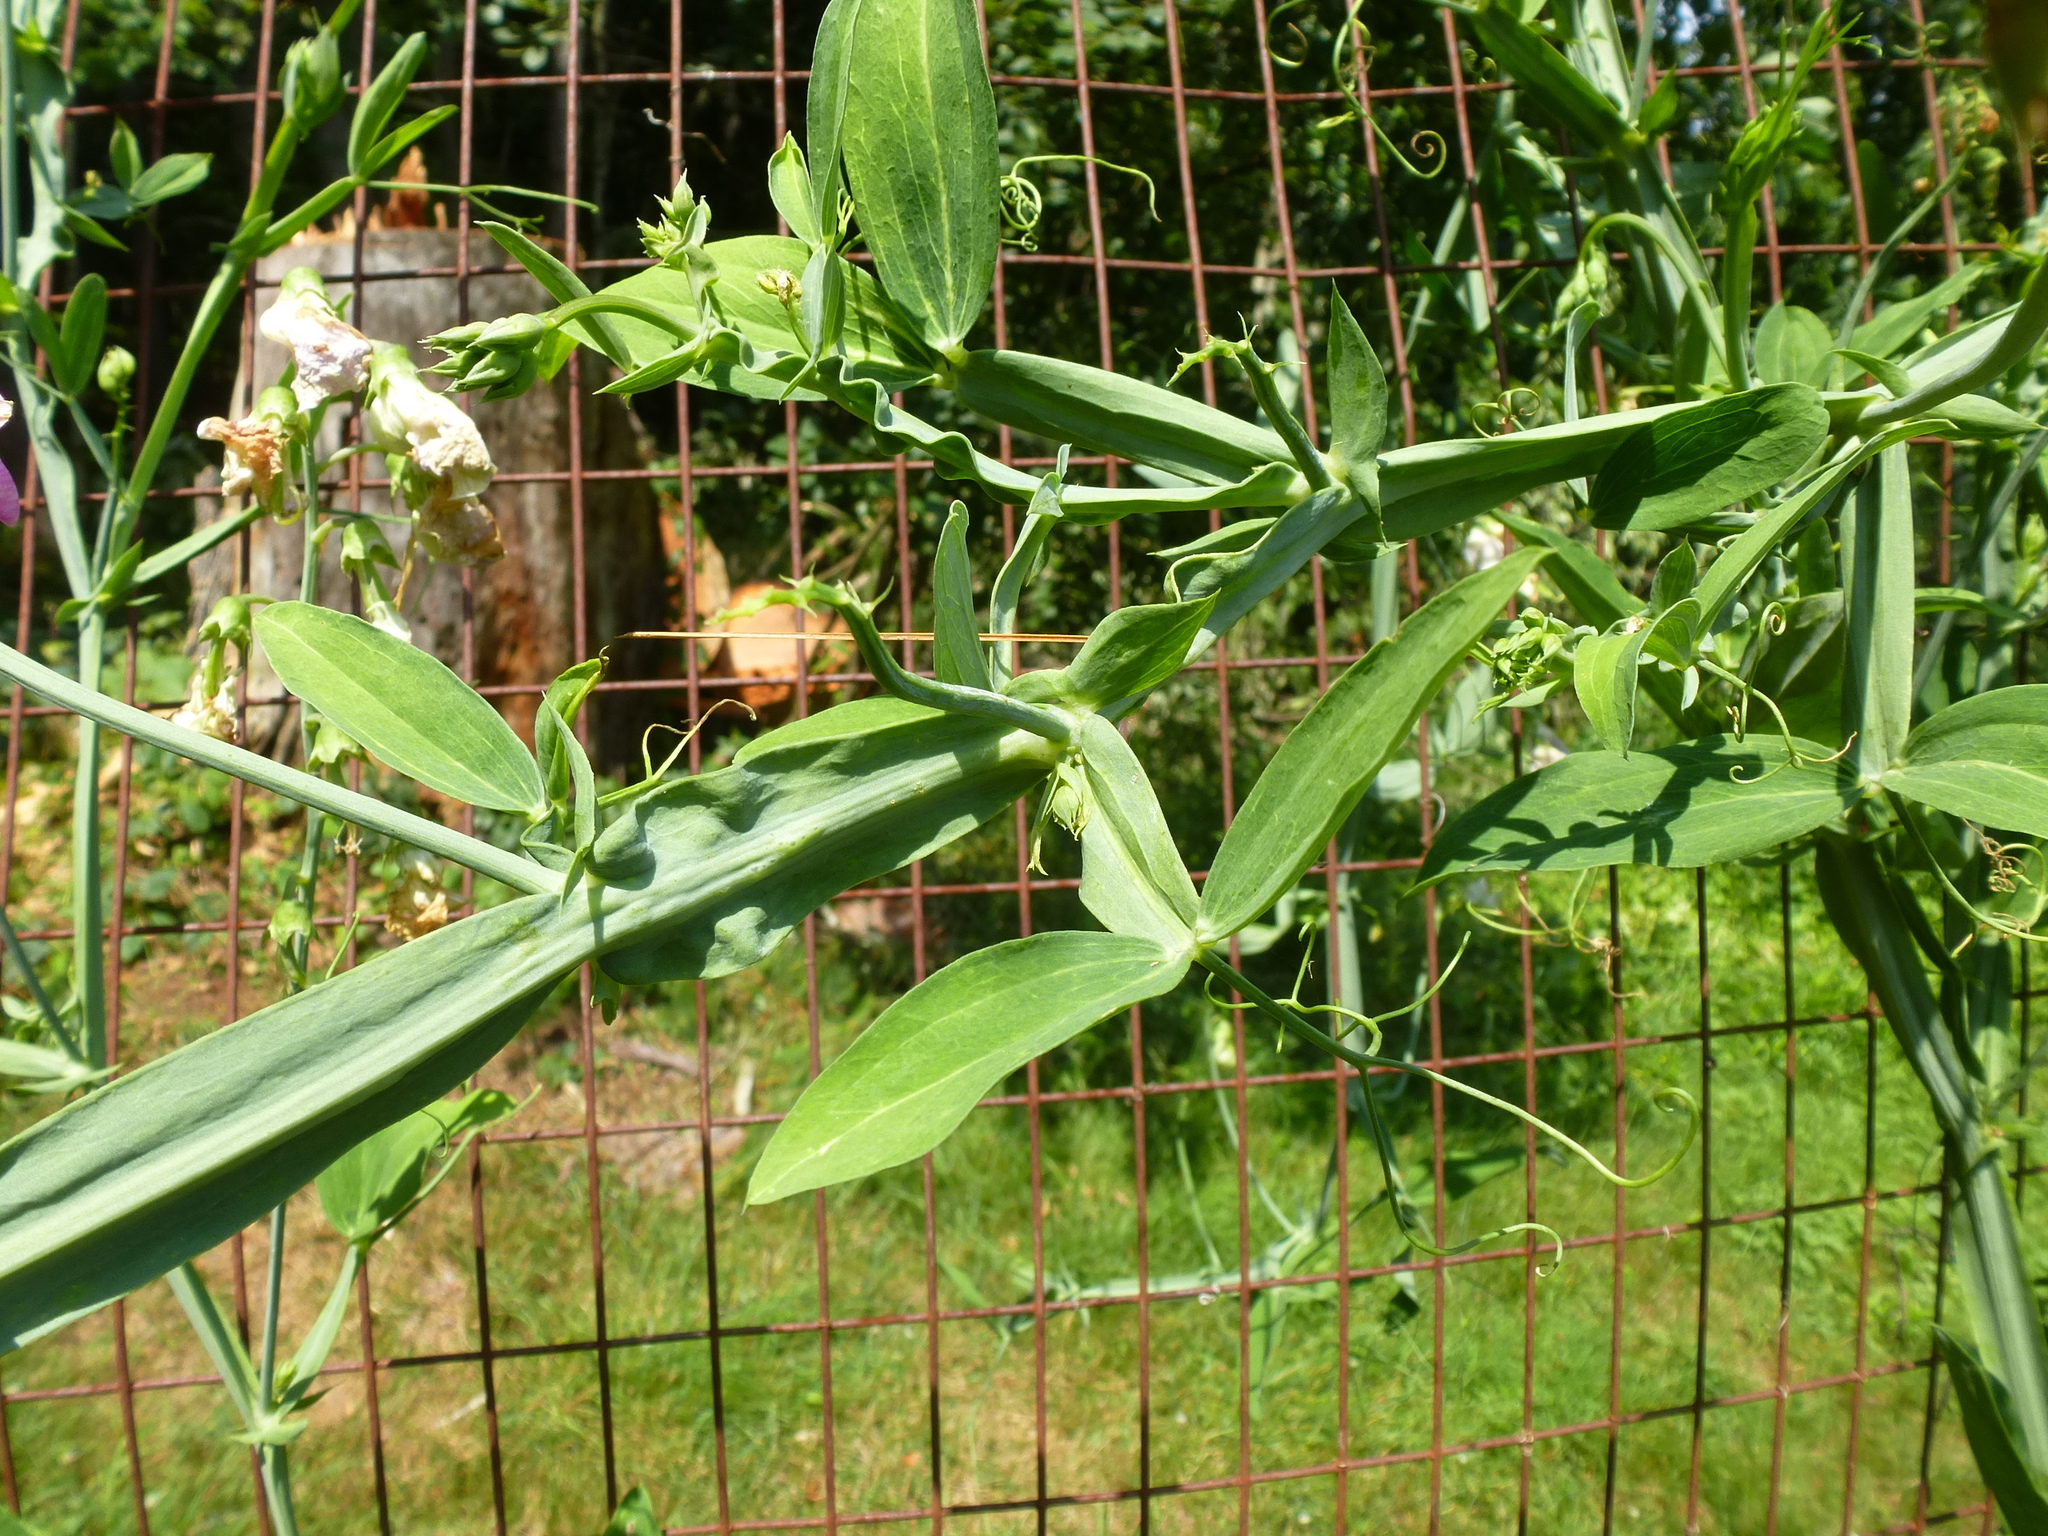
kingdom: Plantae
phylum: Tracheophyta
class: Magnoliopsida
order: Fabales
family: Fabaceae
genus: Lathyrus
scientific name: Lathyrus latifolius
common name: Perennial pea
